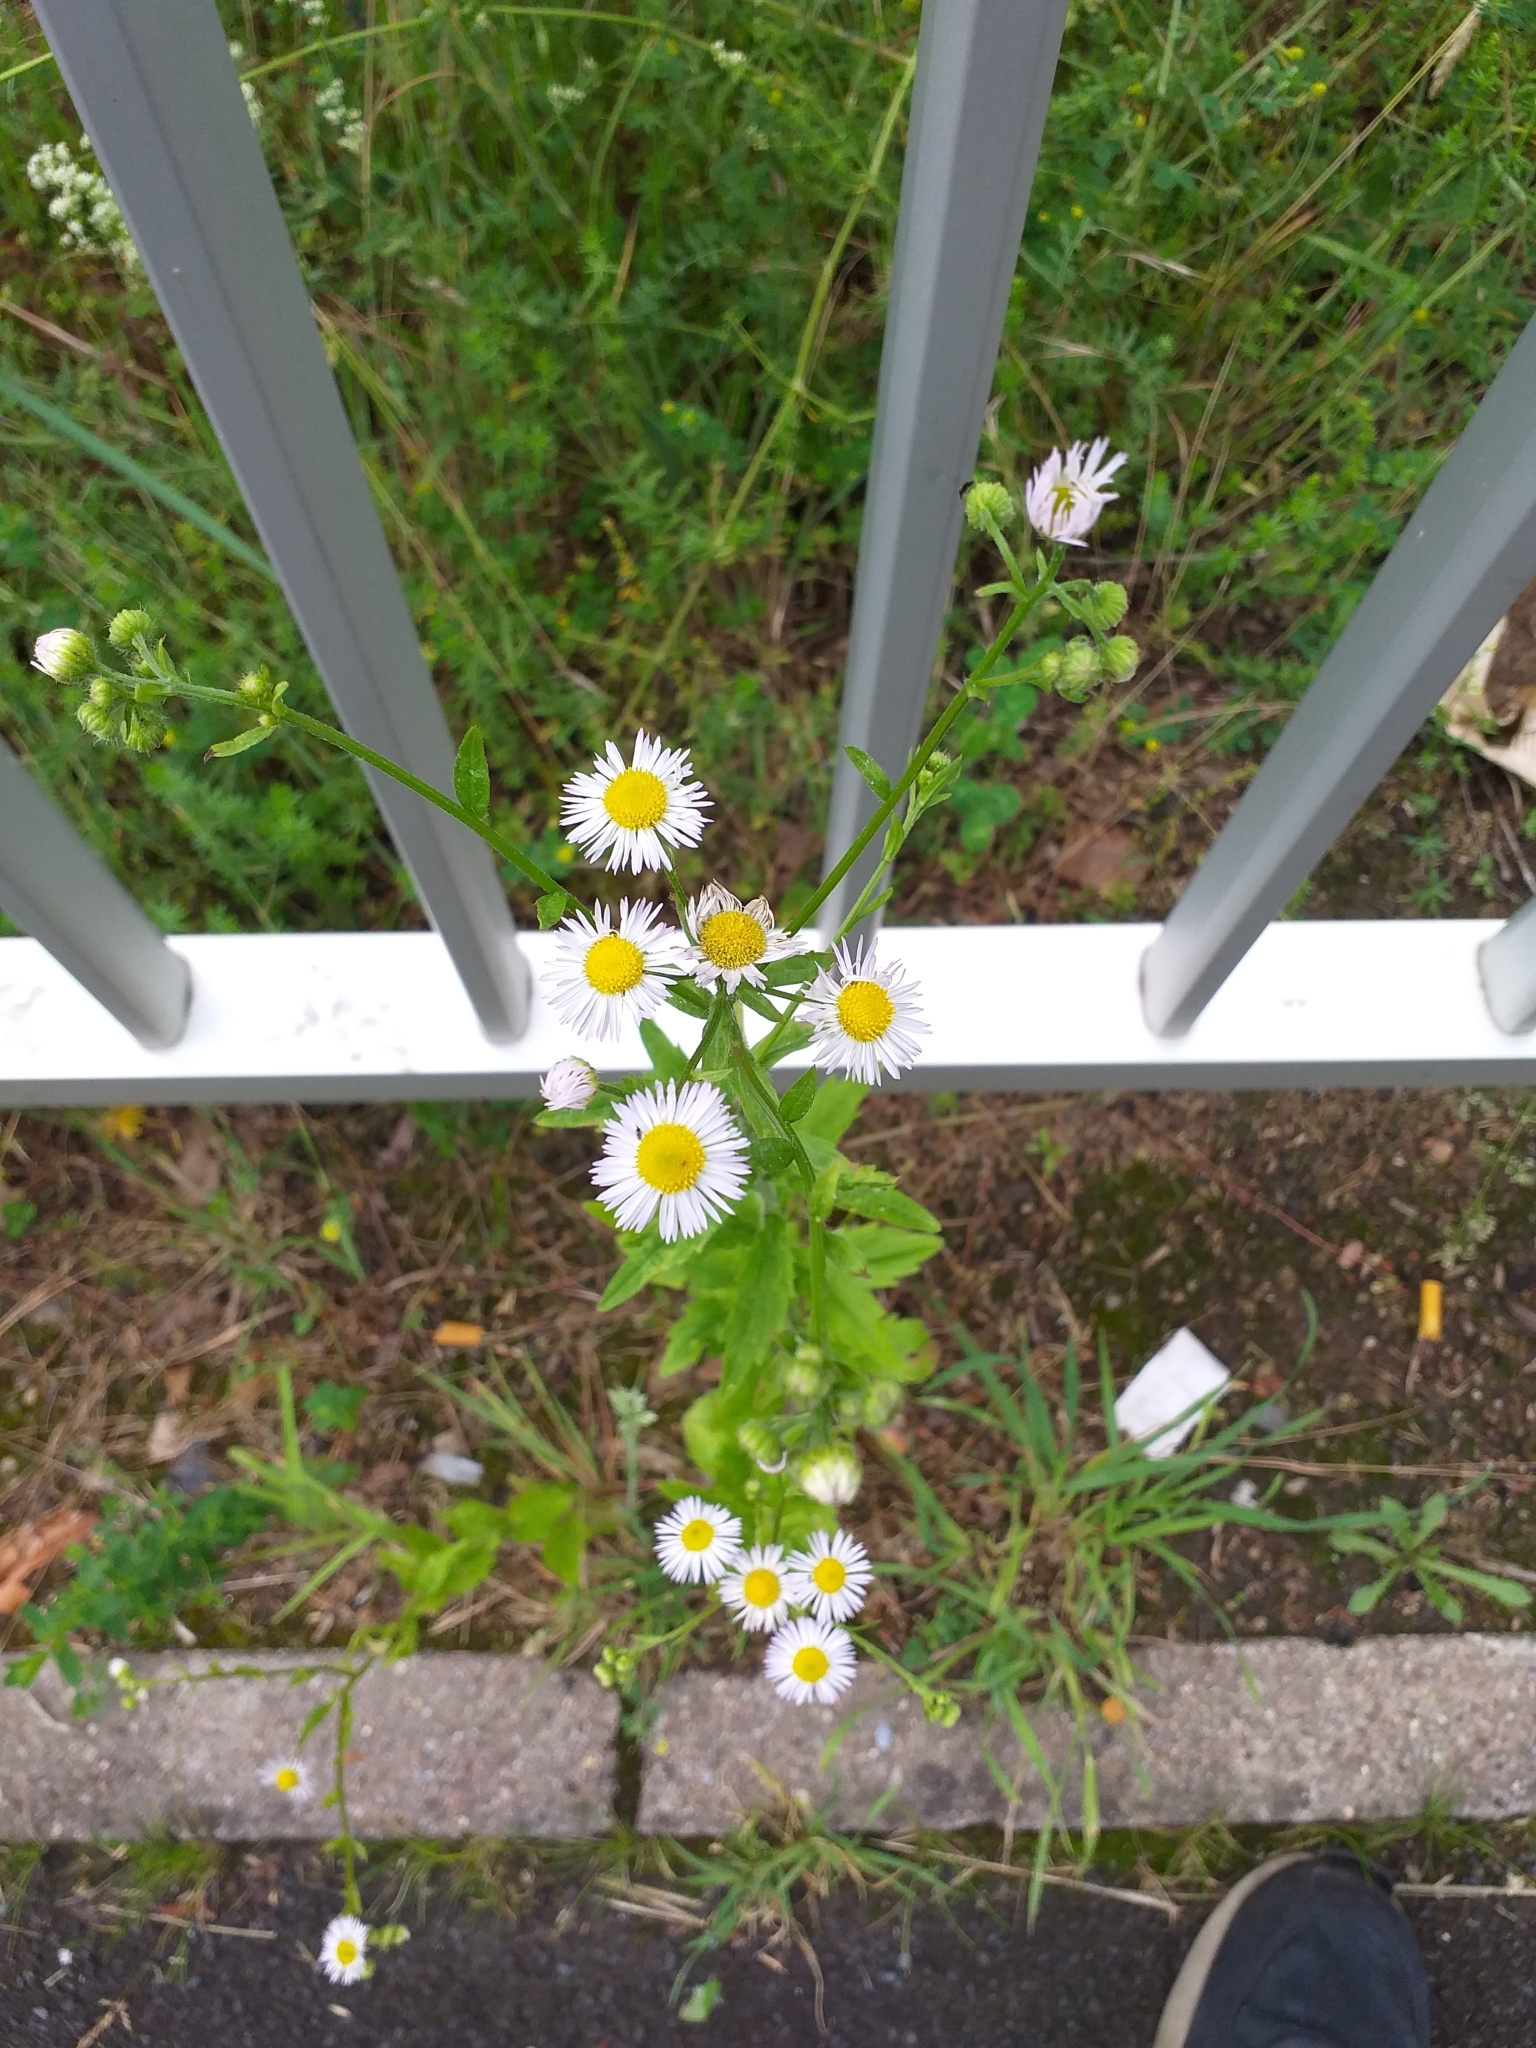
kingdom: Plantae
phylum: Tracheophyta
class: Magnoliopsida
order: Asterales
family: Asteraceae
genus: Erigeron
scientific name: Erigeron annuus
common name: Tall fleabane
